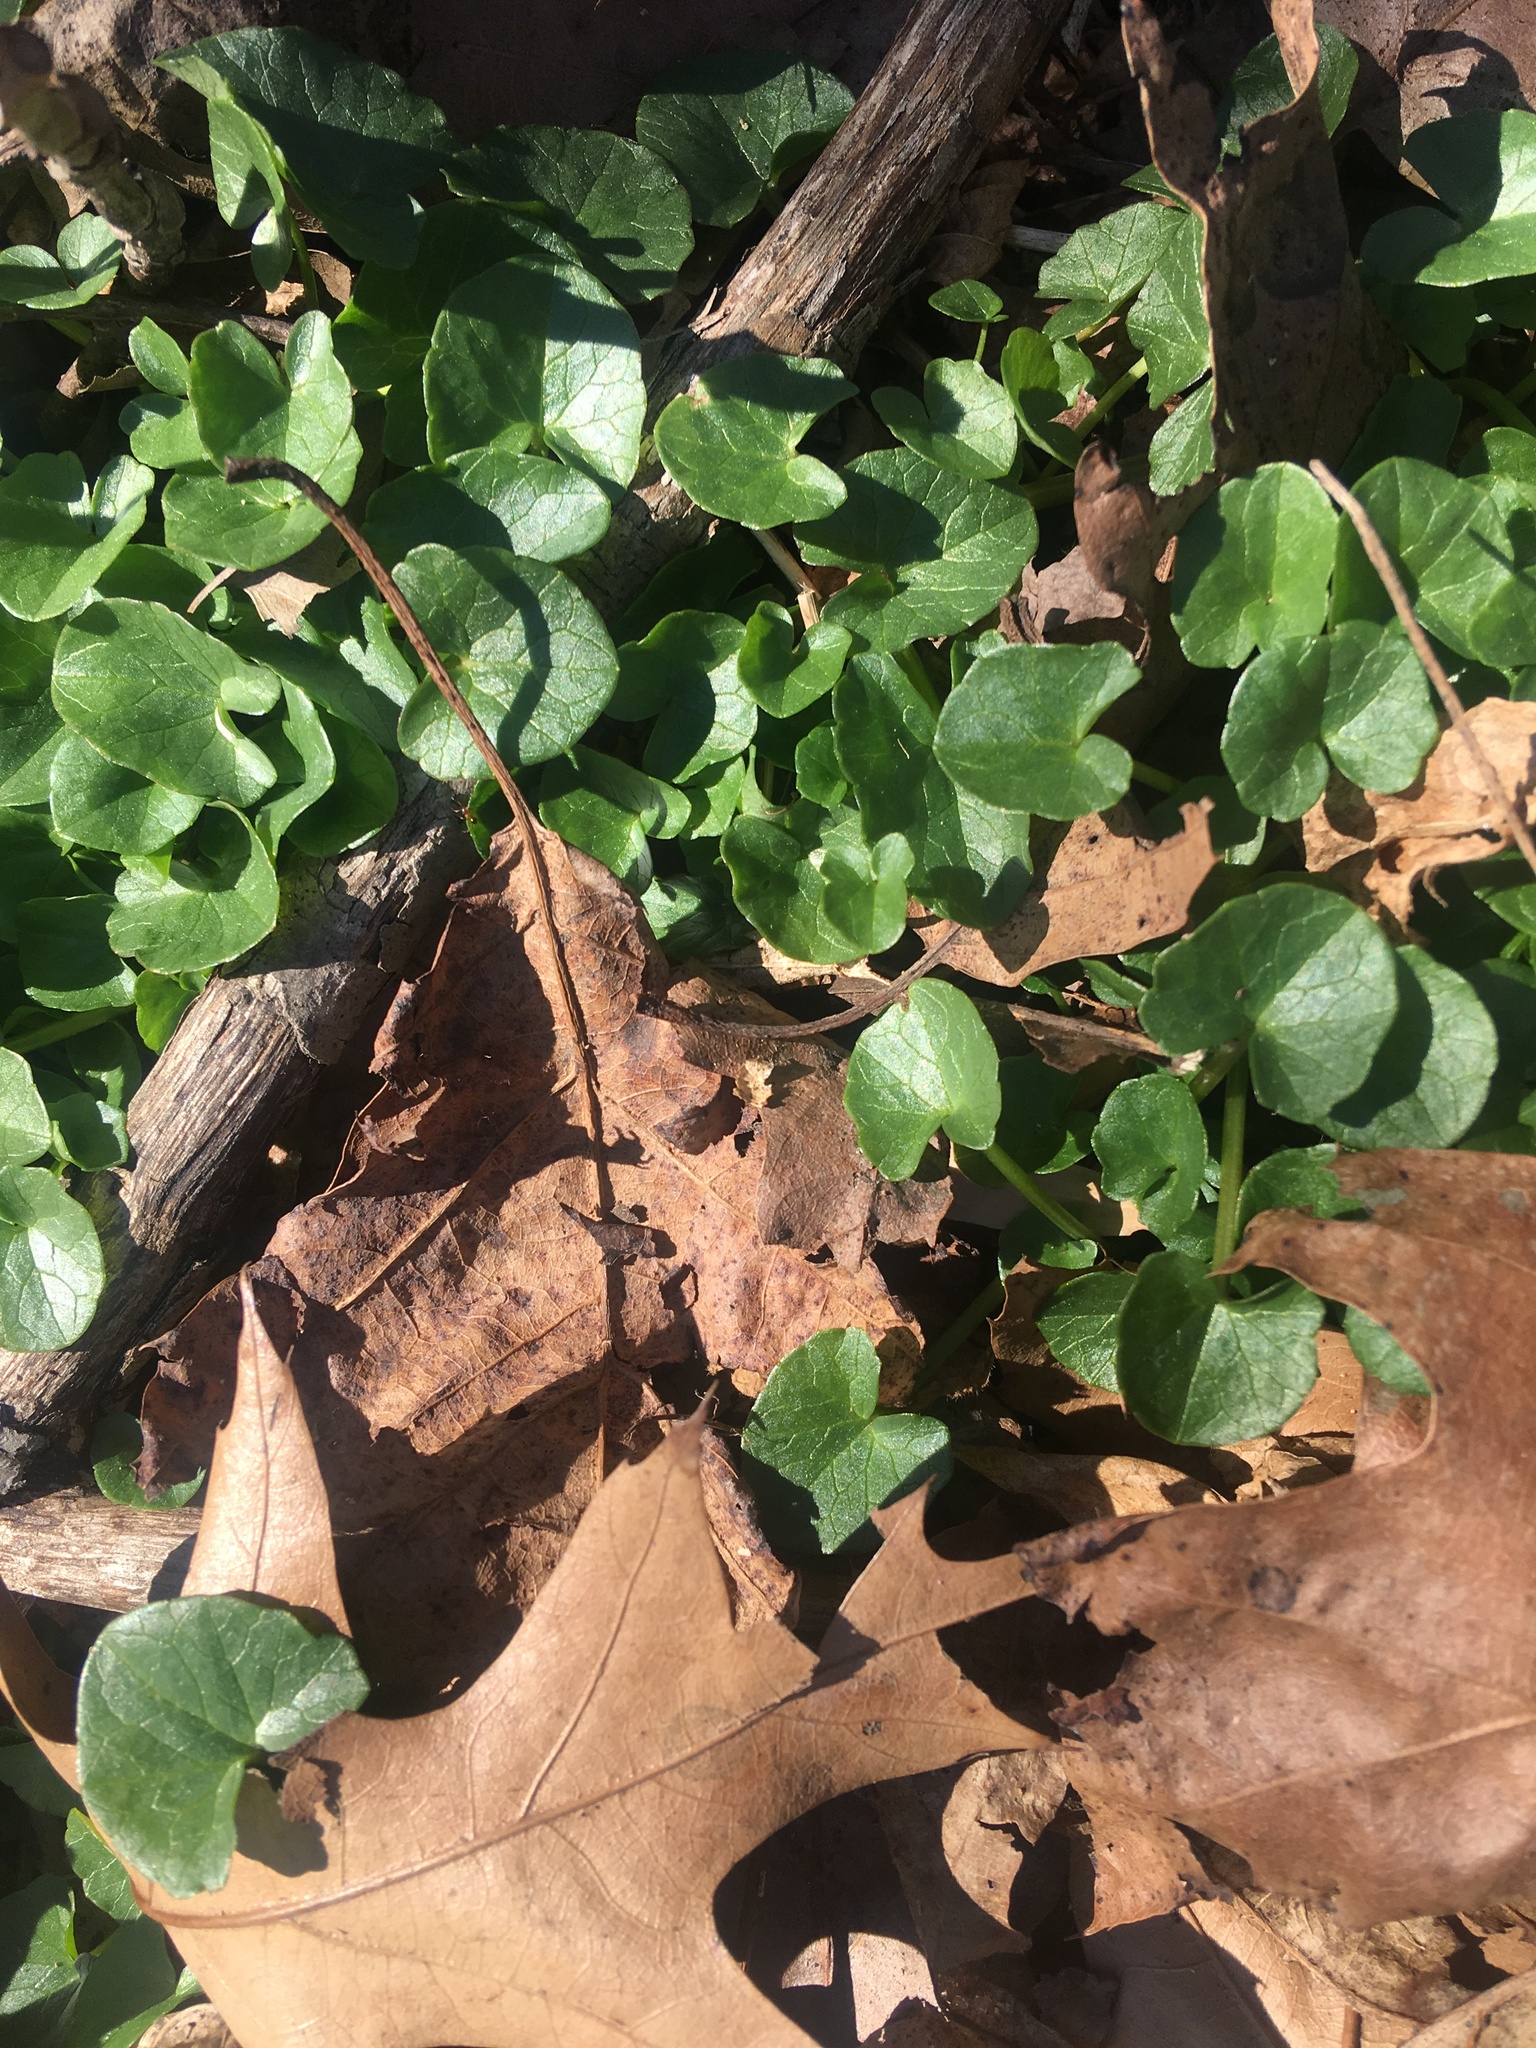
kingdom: Plantae
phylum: Tracheophyta
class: Magnoliopsida
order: Ranunculales
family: Ranunculaceae
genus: Ficaria
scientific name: Ficaria verna
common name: Lesser celandine
